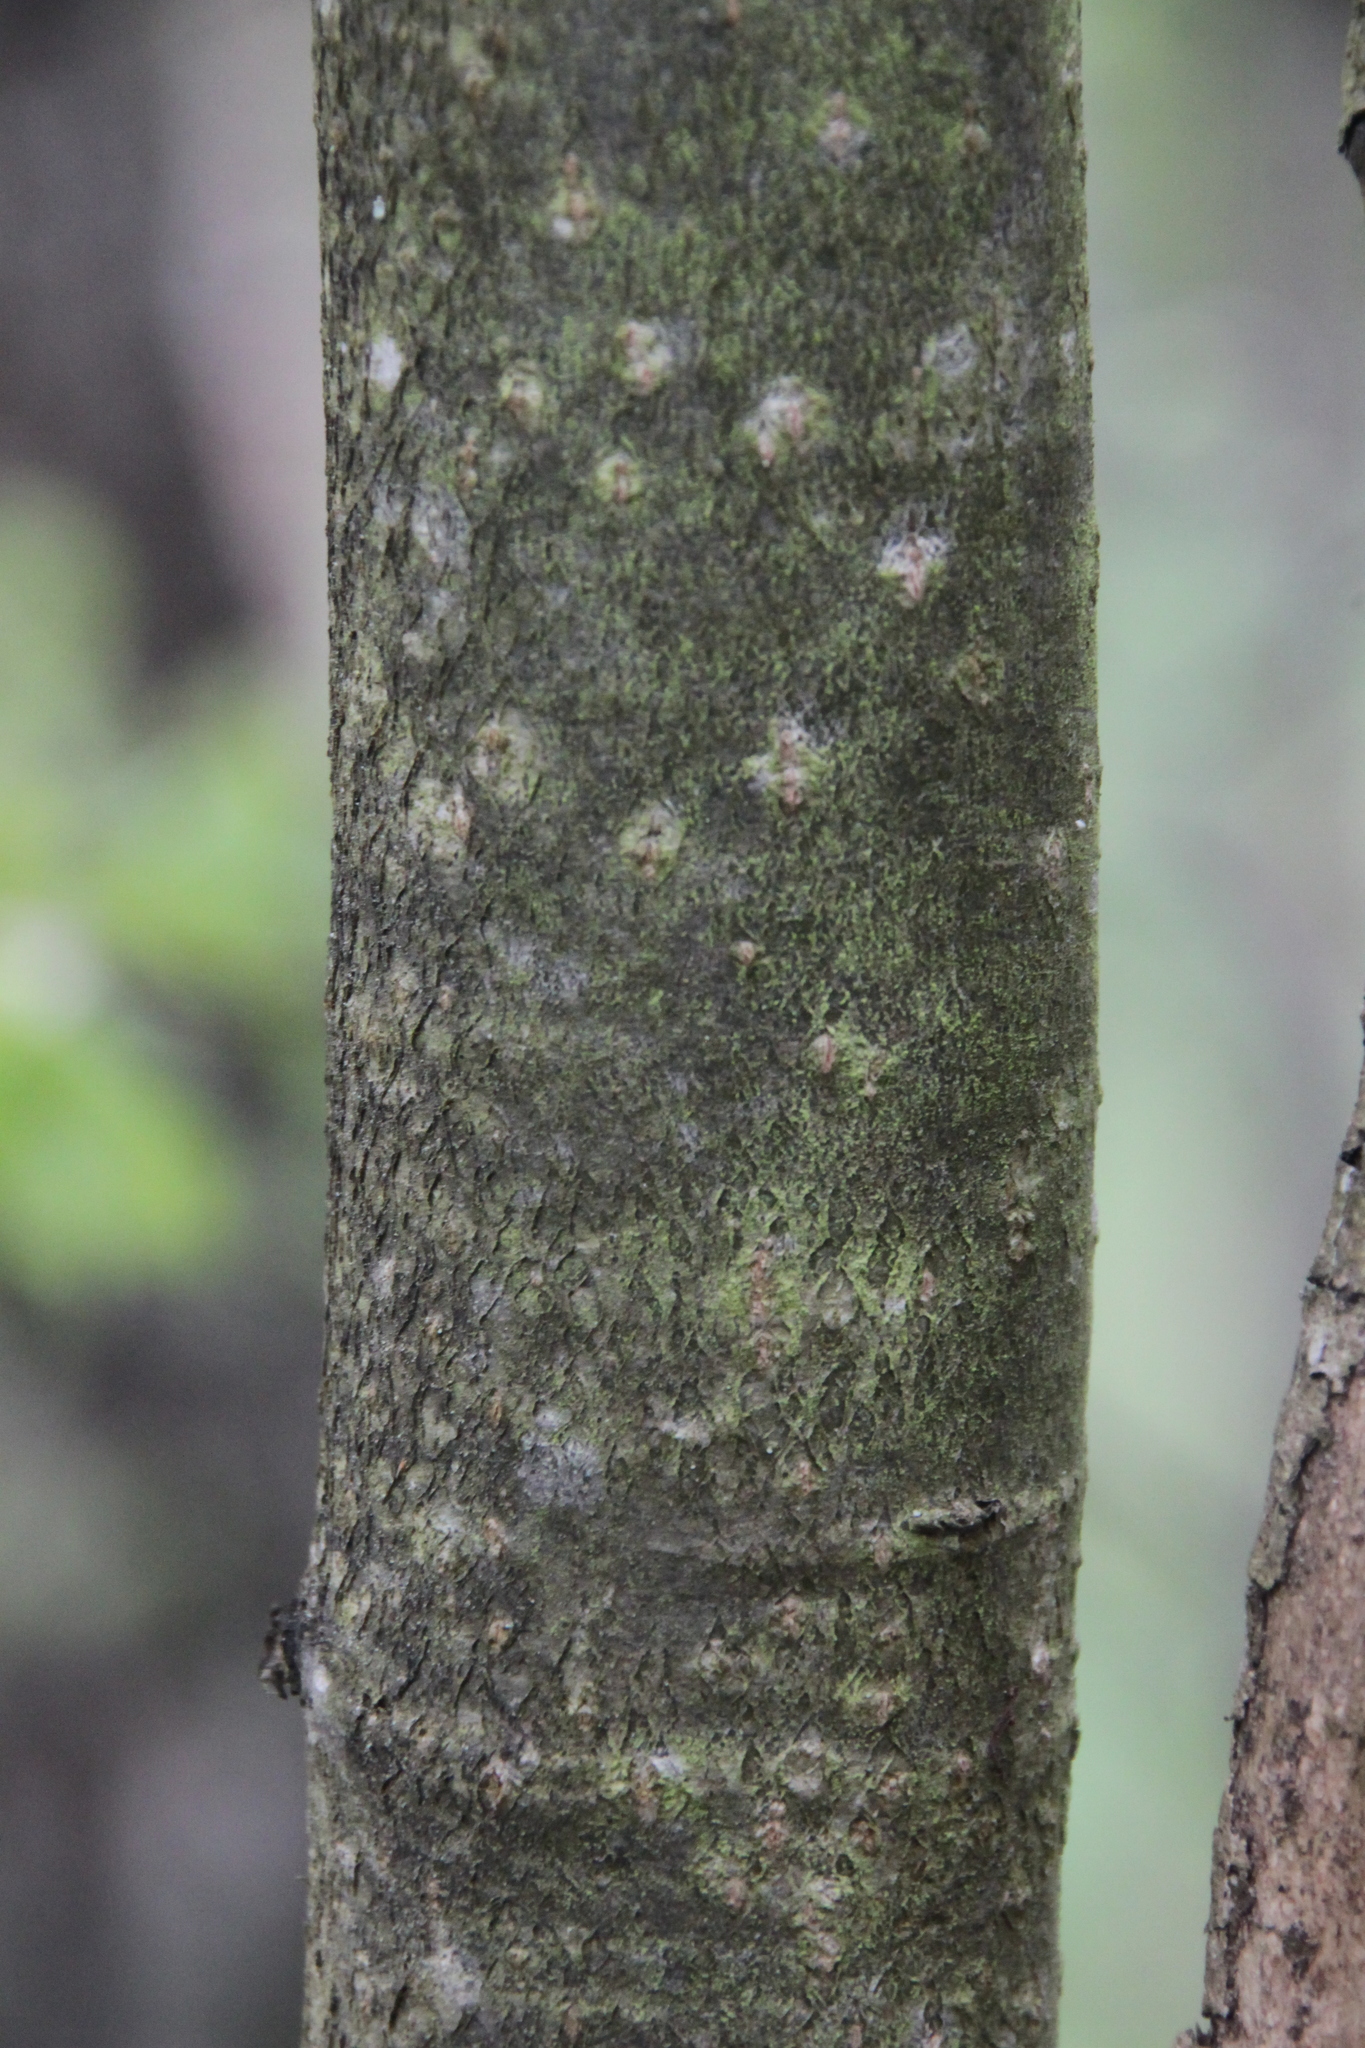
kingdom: Plantae
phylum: Tracheophyta
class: Magnoliopsida
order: Malvales
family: Malvaceae
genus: Tilia
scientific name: Tilia cordata
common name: Small-leaved lime
